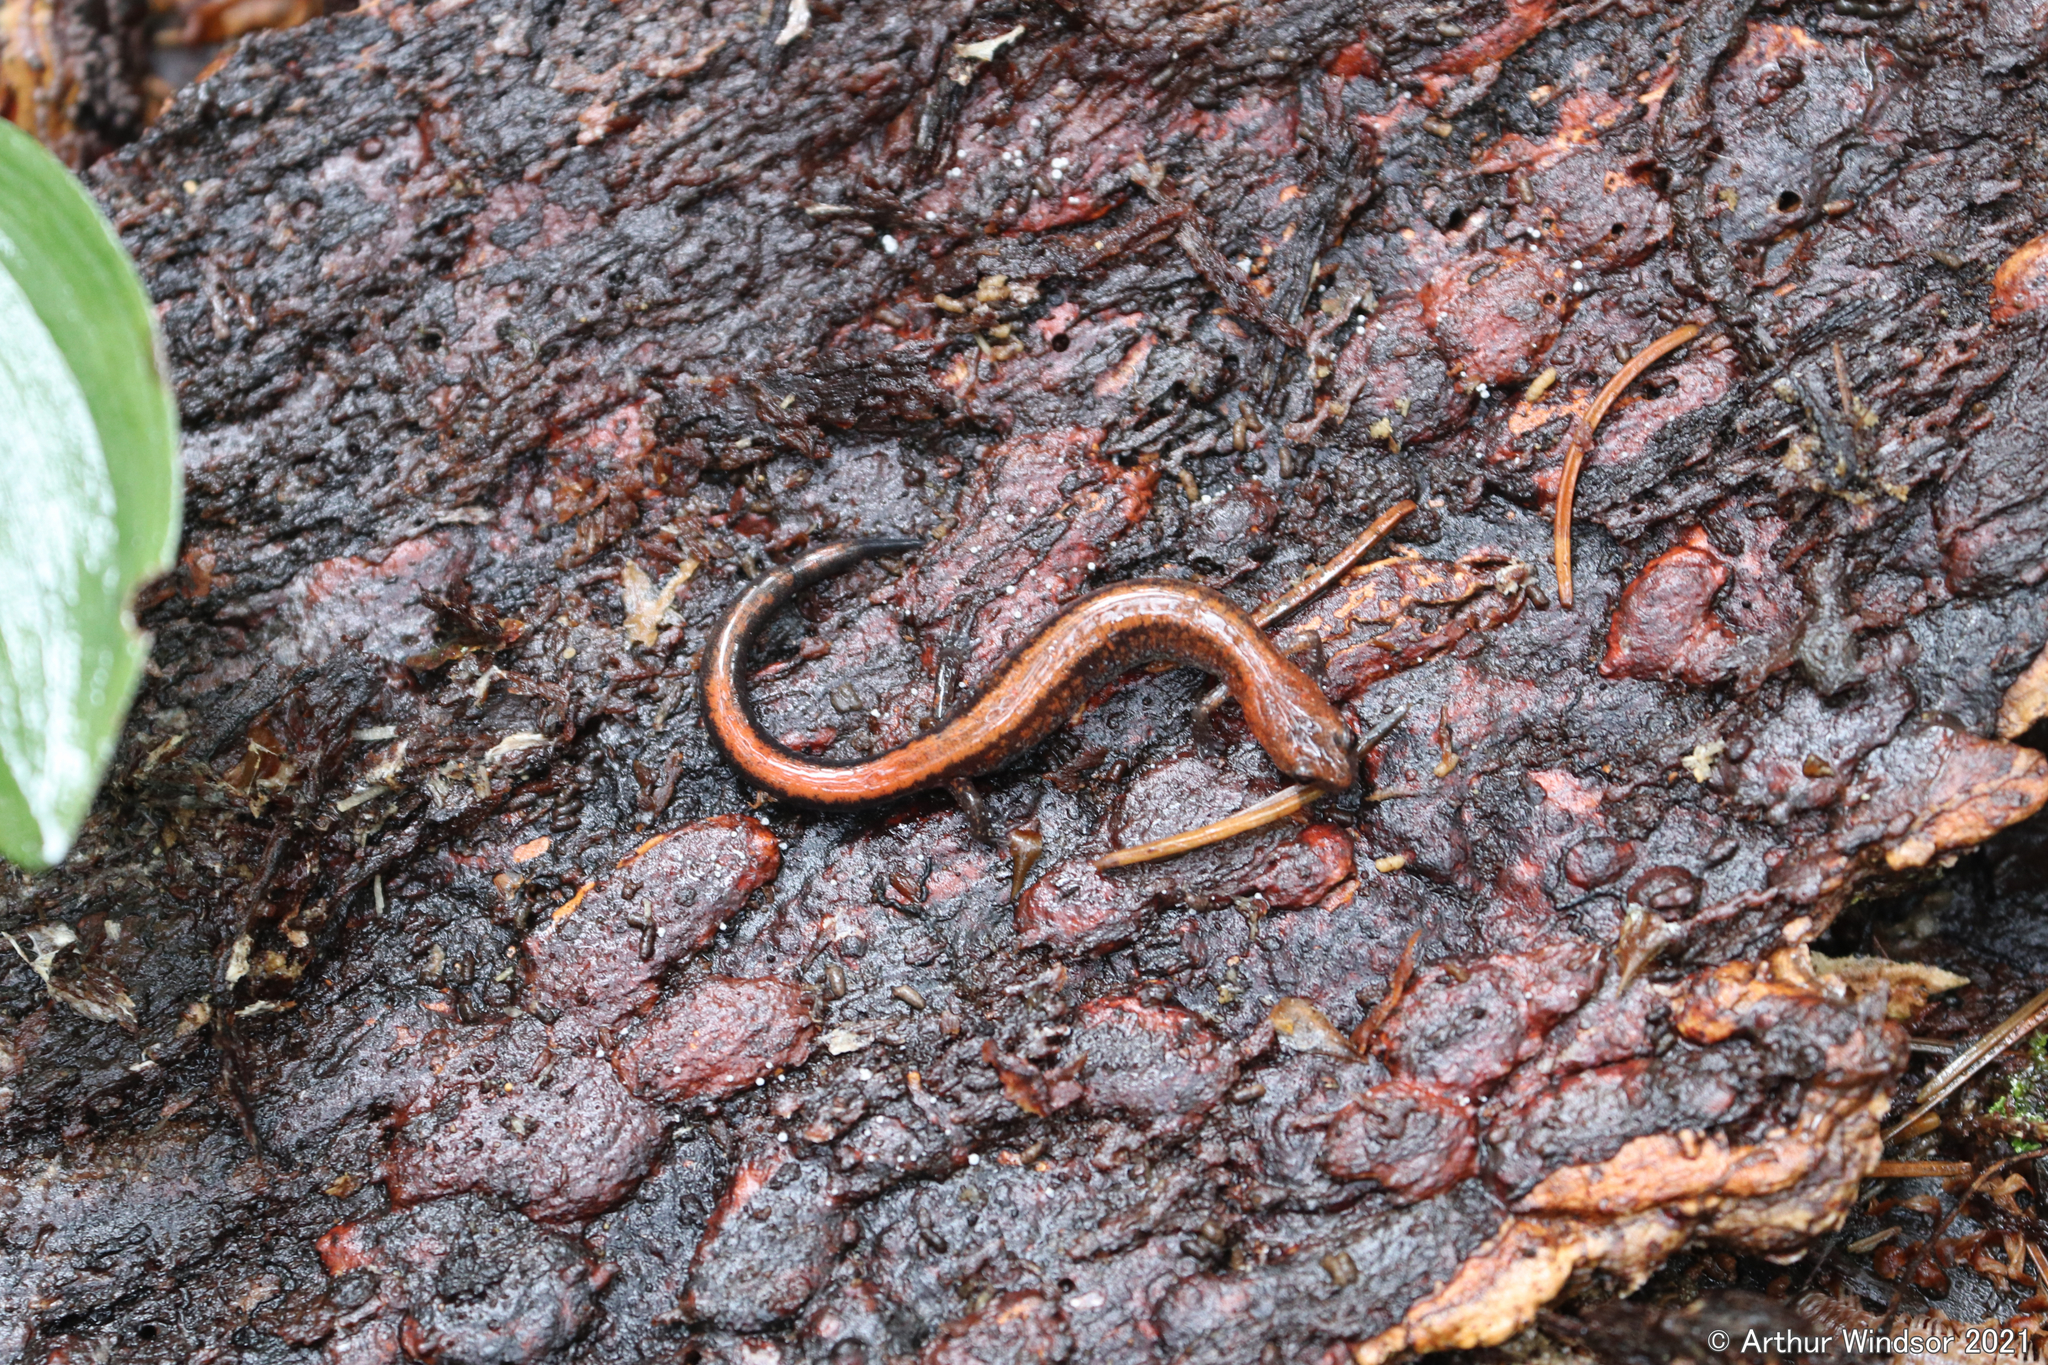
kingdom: Animalia
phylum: Chordata
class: Amphibia
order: Caudata
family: Plethodontidae
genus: Plethodon
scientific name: Plethodon cinereus
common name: Redback salamander
